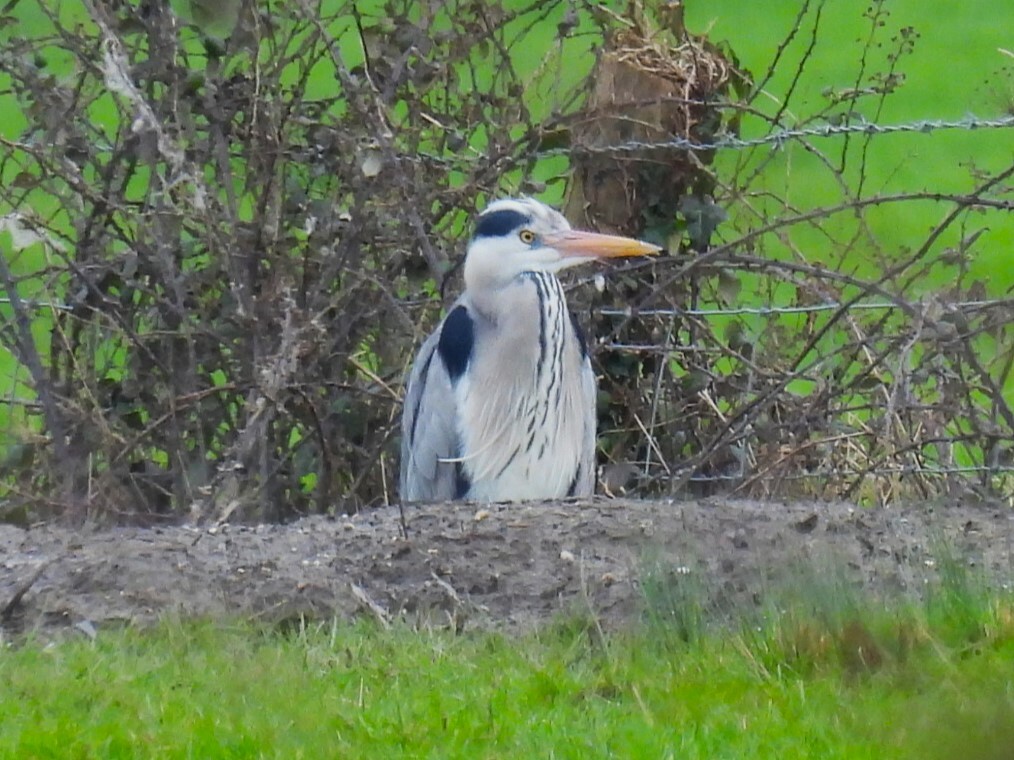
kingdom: Animalia
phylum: Chordata
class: Aves
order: Pelecaniformes
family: Ardeidae
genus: Ardea
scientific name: Ardea cinerea
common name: Grey heron
